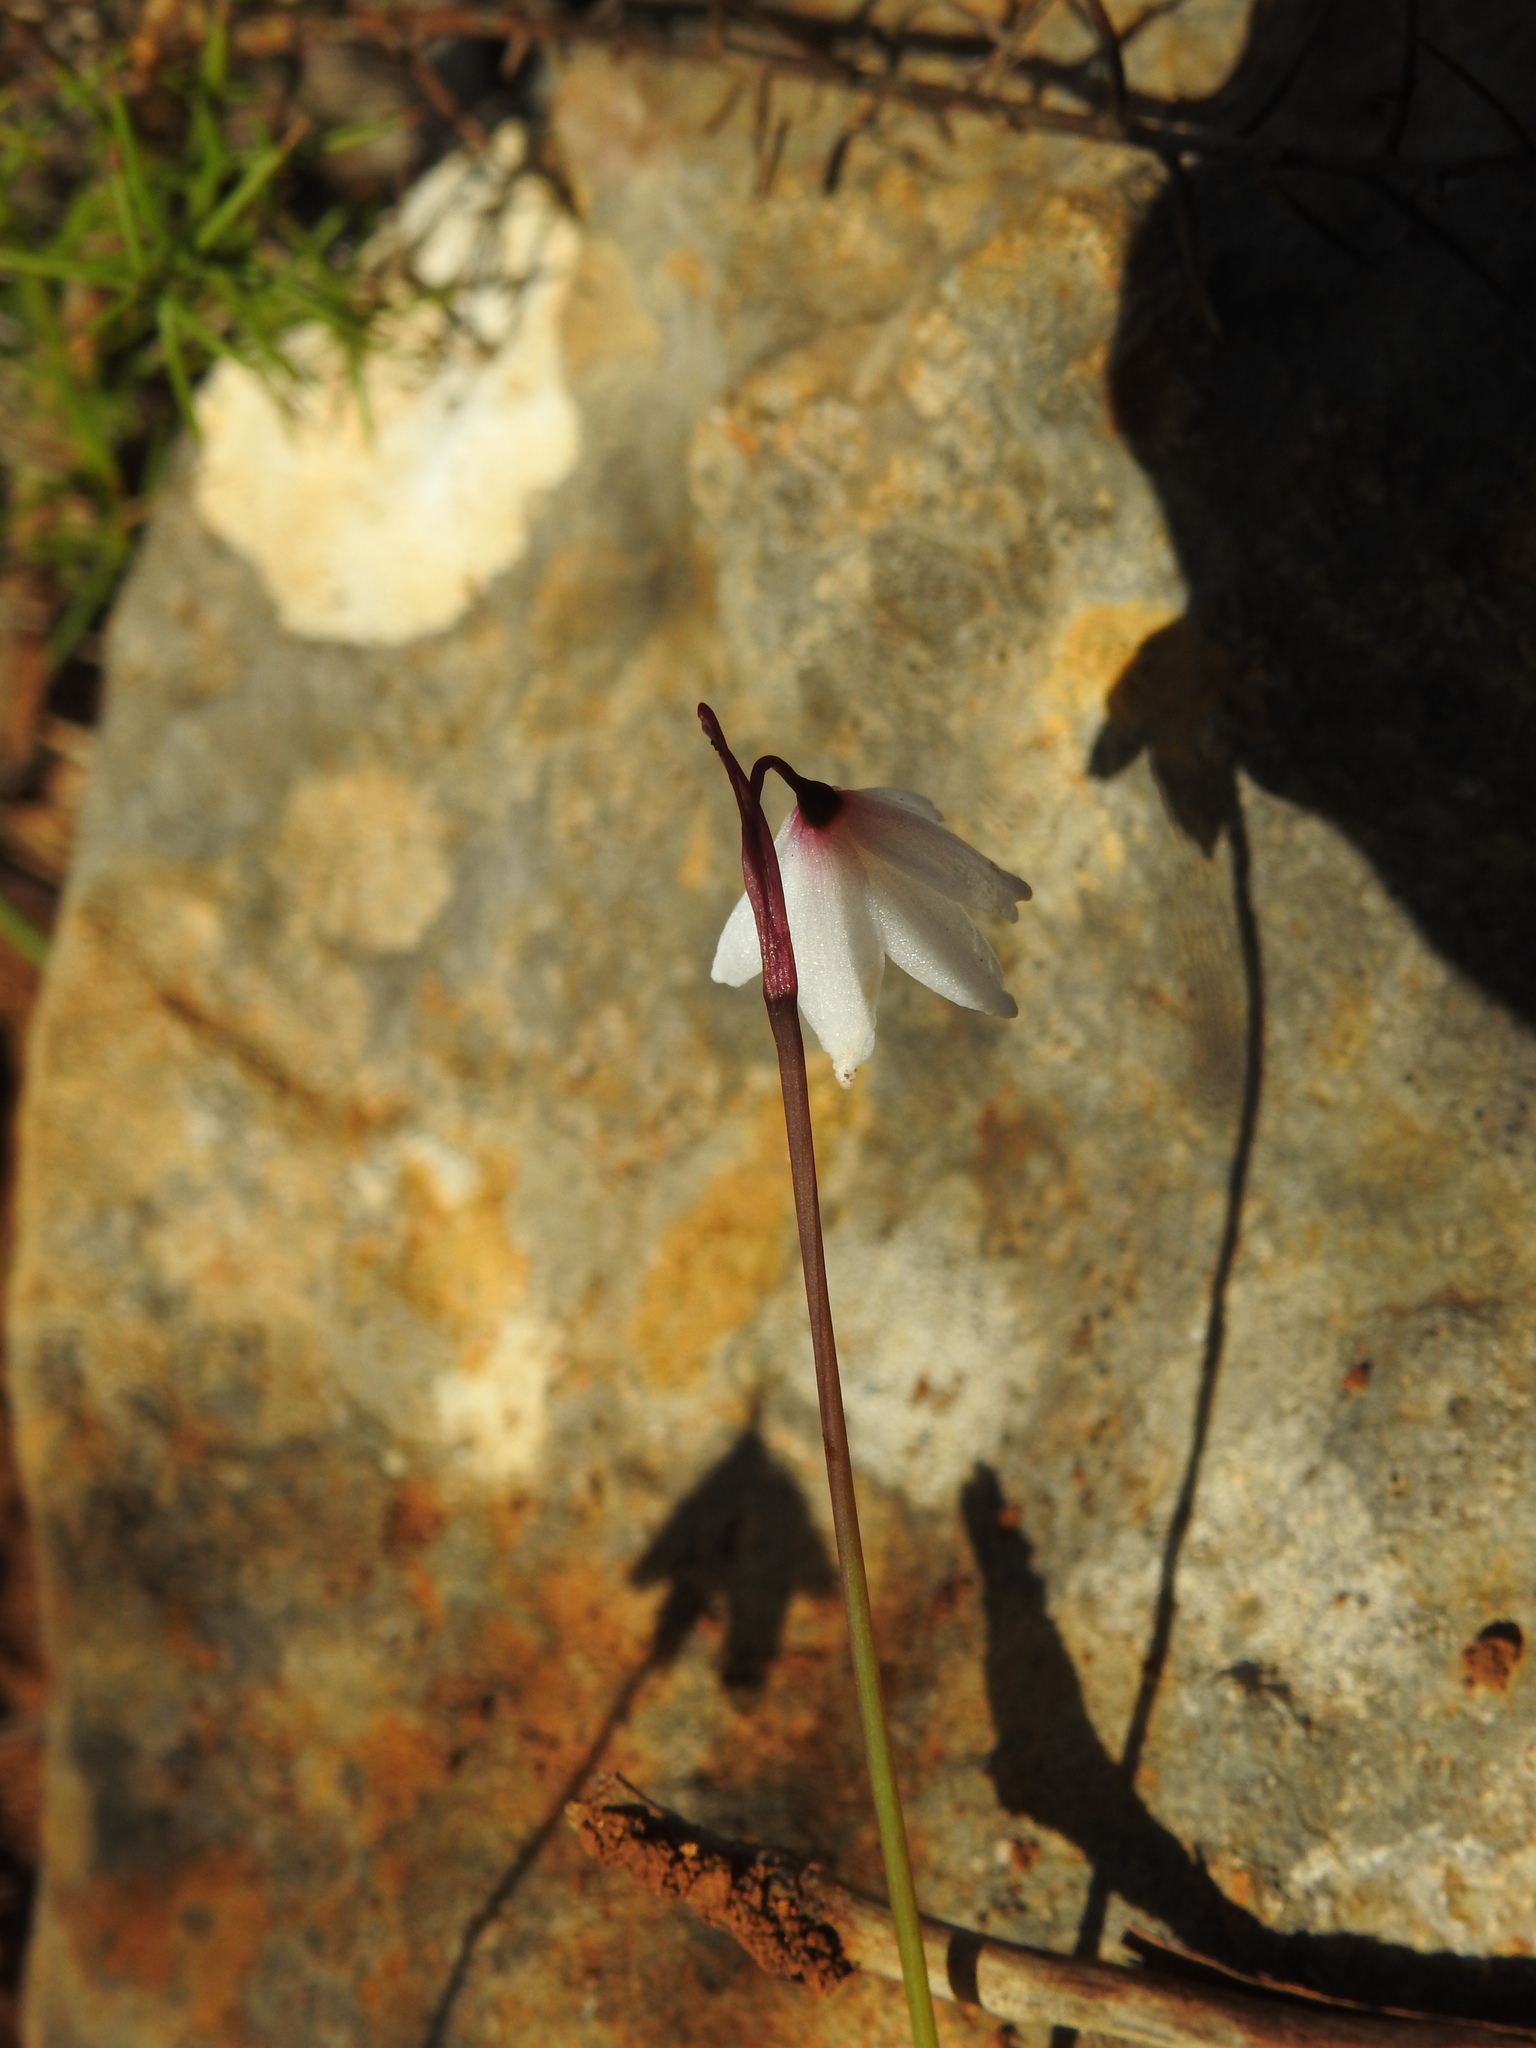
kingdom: Plantae
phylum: Tracheophyta
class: Liliopsida
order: Asparagales
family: Amaryllidaceae
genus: Acis
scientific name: Acis autumnalis
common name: Autumn snowflake
